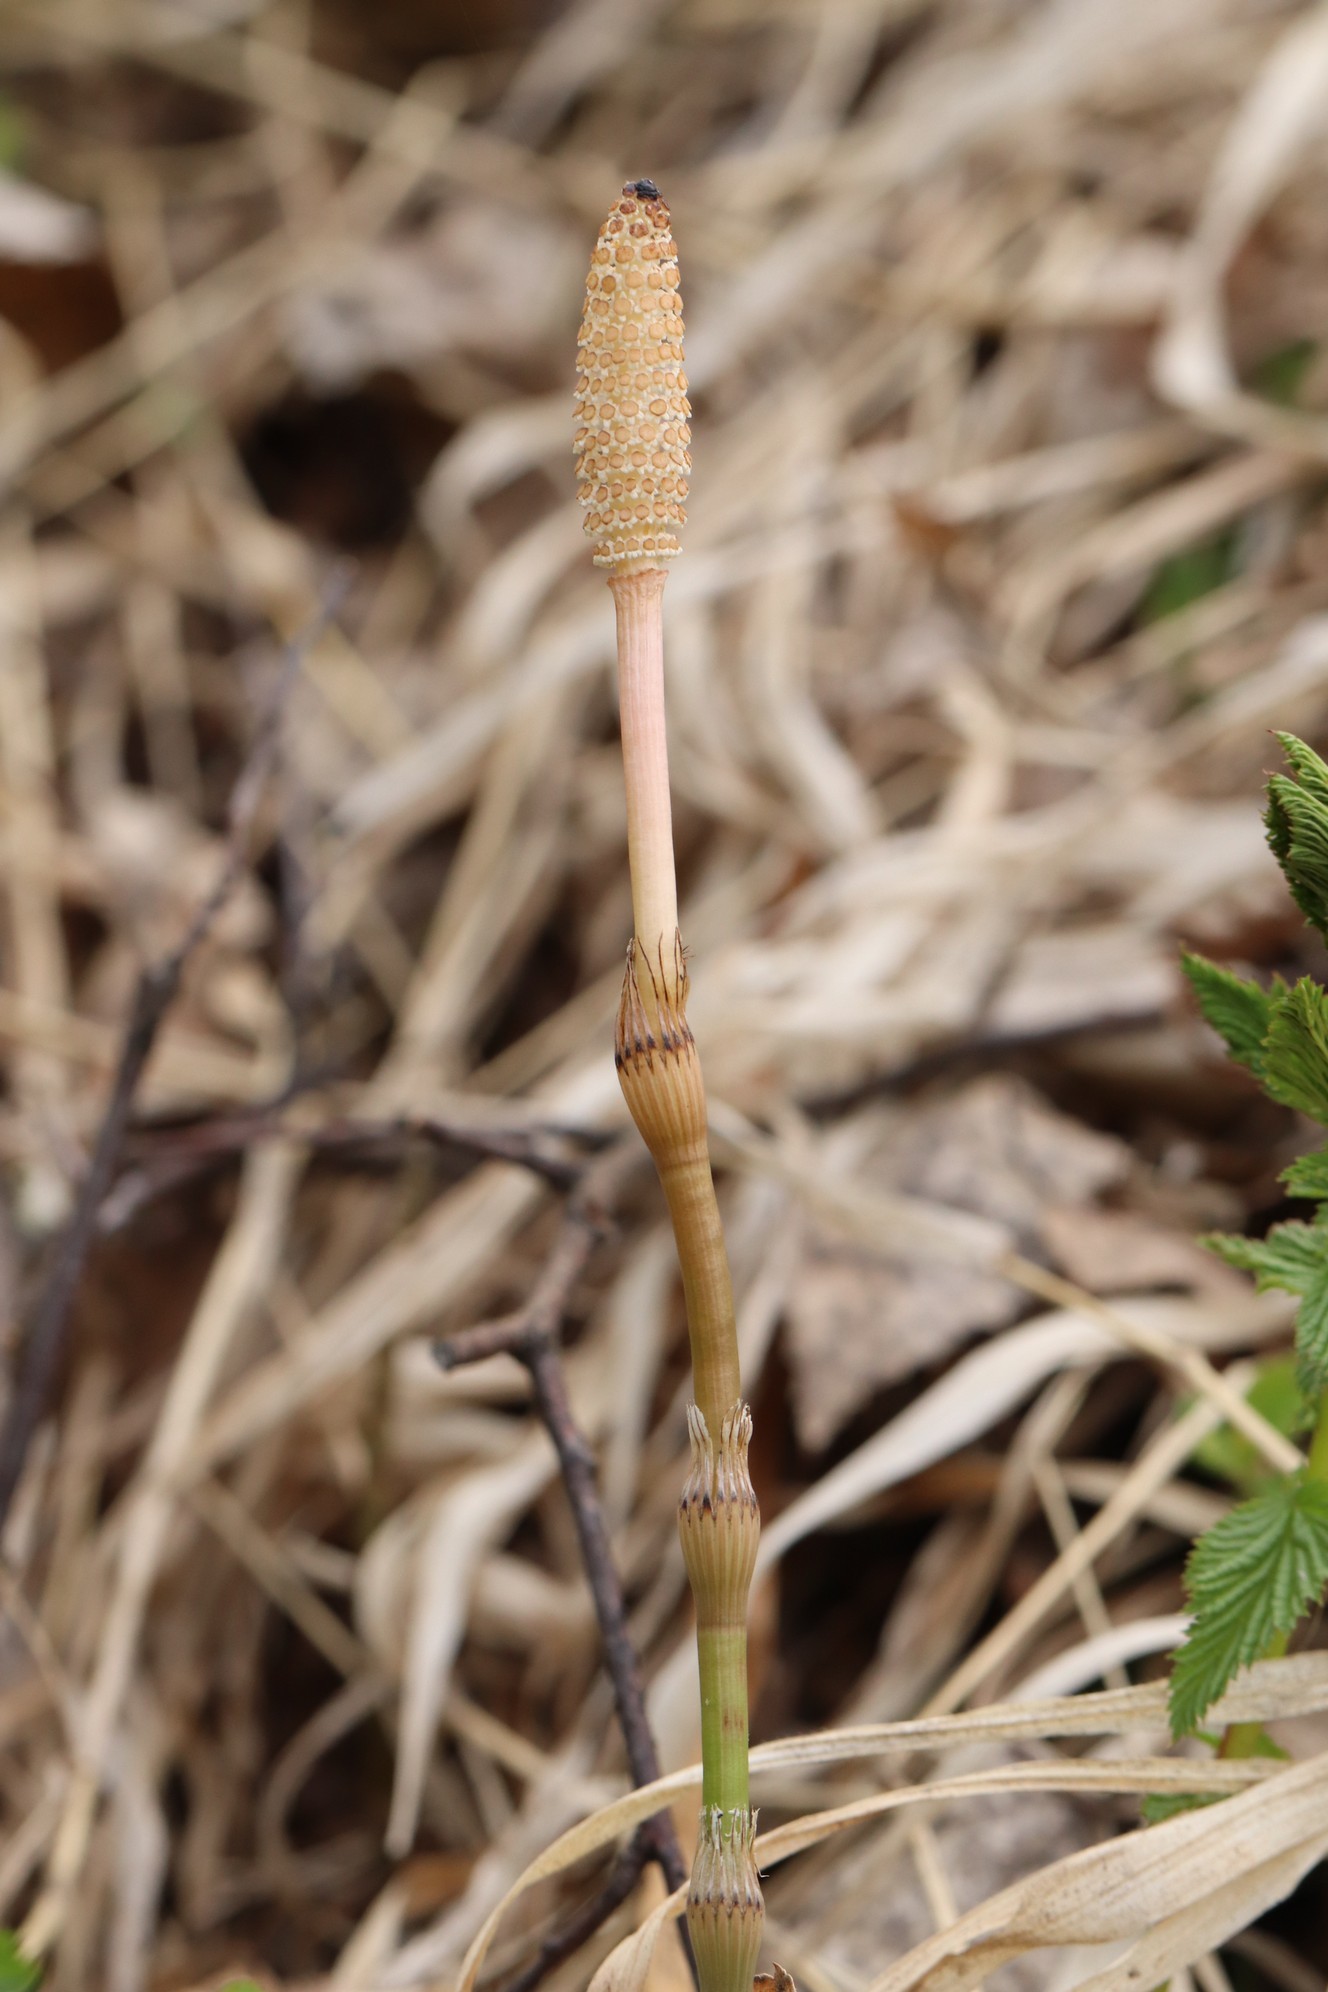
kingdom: Plantae
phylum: Tracheophyta
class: Polypodiopsida
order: Equisetales
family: Equisetaceae
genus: Equisetum
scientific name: Equisetum pratense
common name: Meadow horsetail
